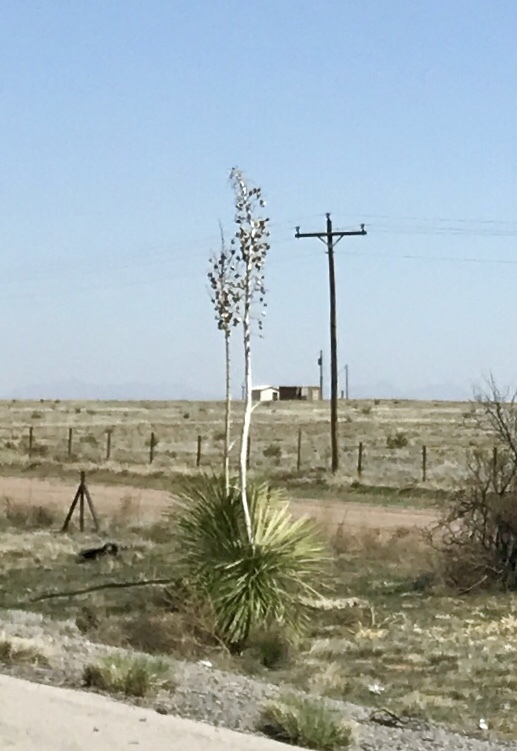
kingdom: Plantae
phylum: Tracheophyta
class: Liliopsida
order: Asparagales
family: Asparagaceae
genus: Yucca
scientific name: Yucca elata
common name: Palmella
